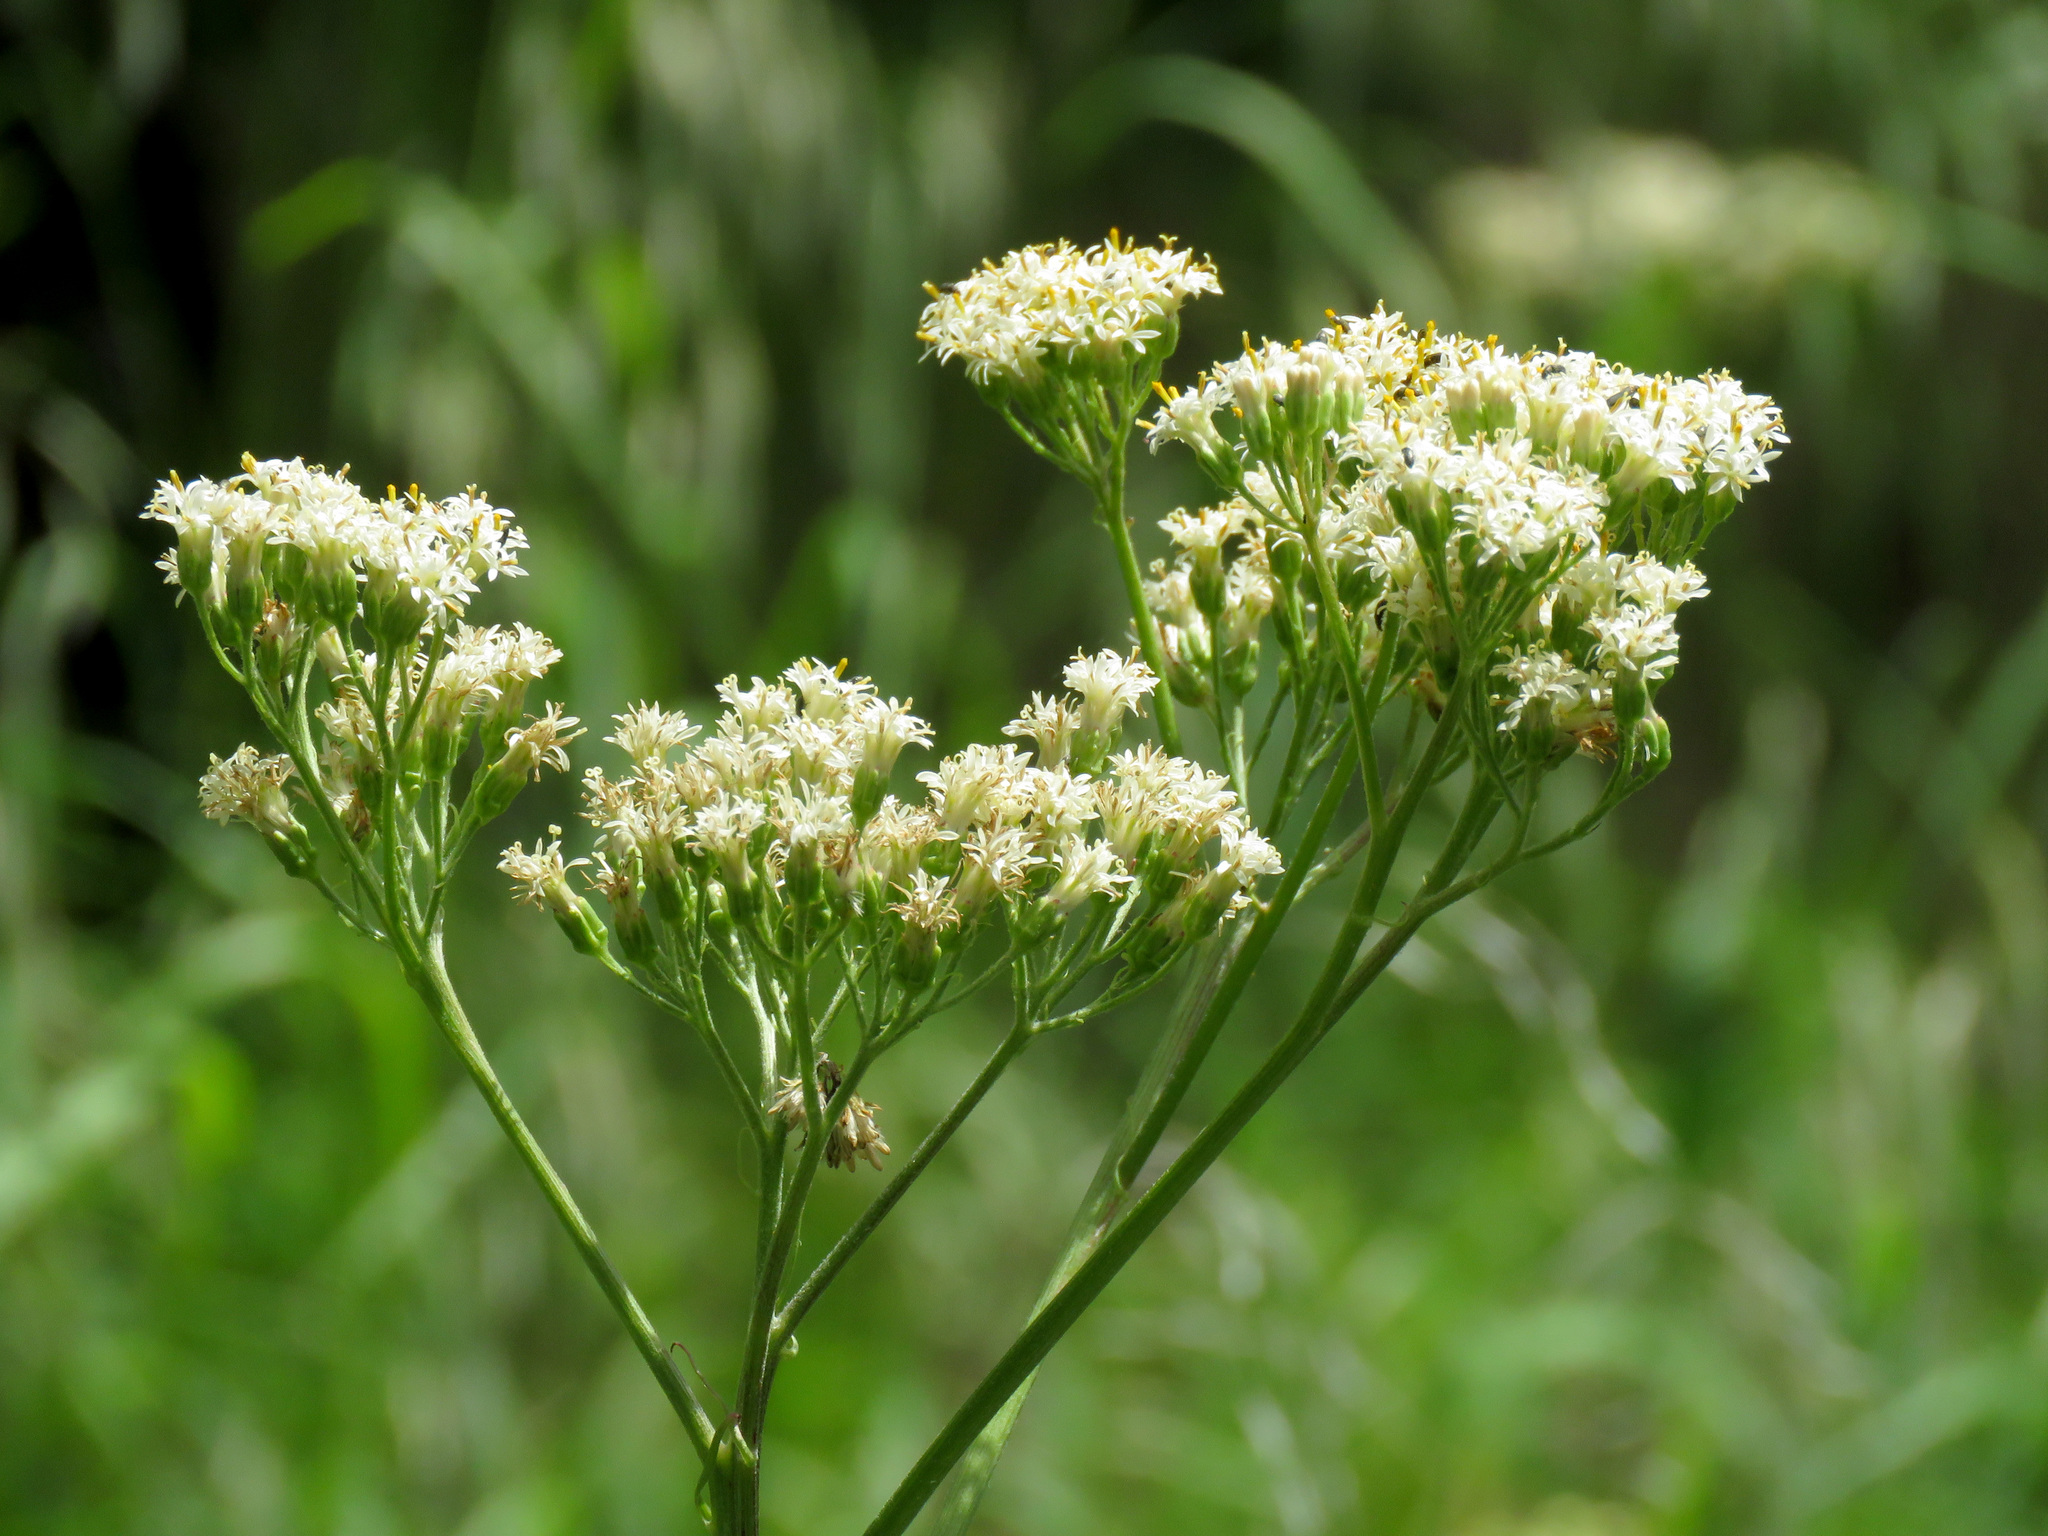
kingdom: Plantae
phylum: Tracheophyta
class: Magnoliopsida
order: Asterales
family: Asteraceae
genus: Psacalium
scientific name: Psacalium decompositum
